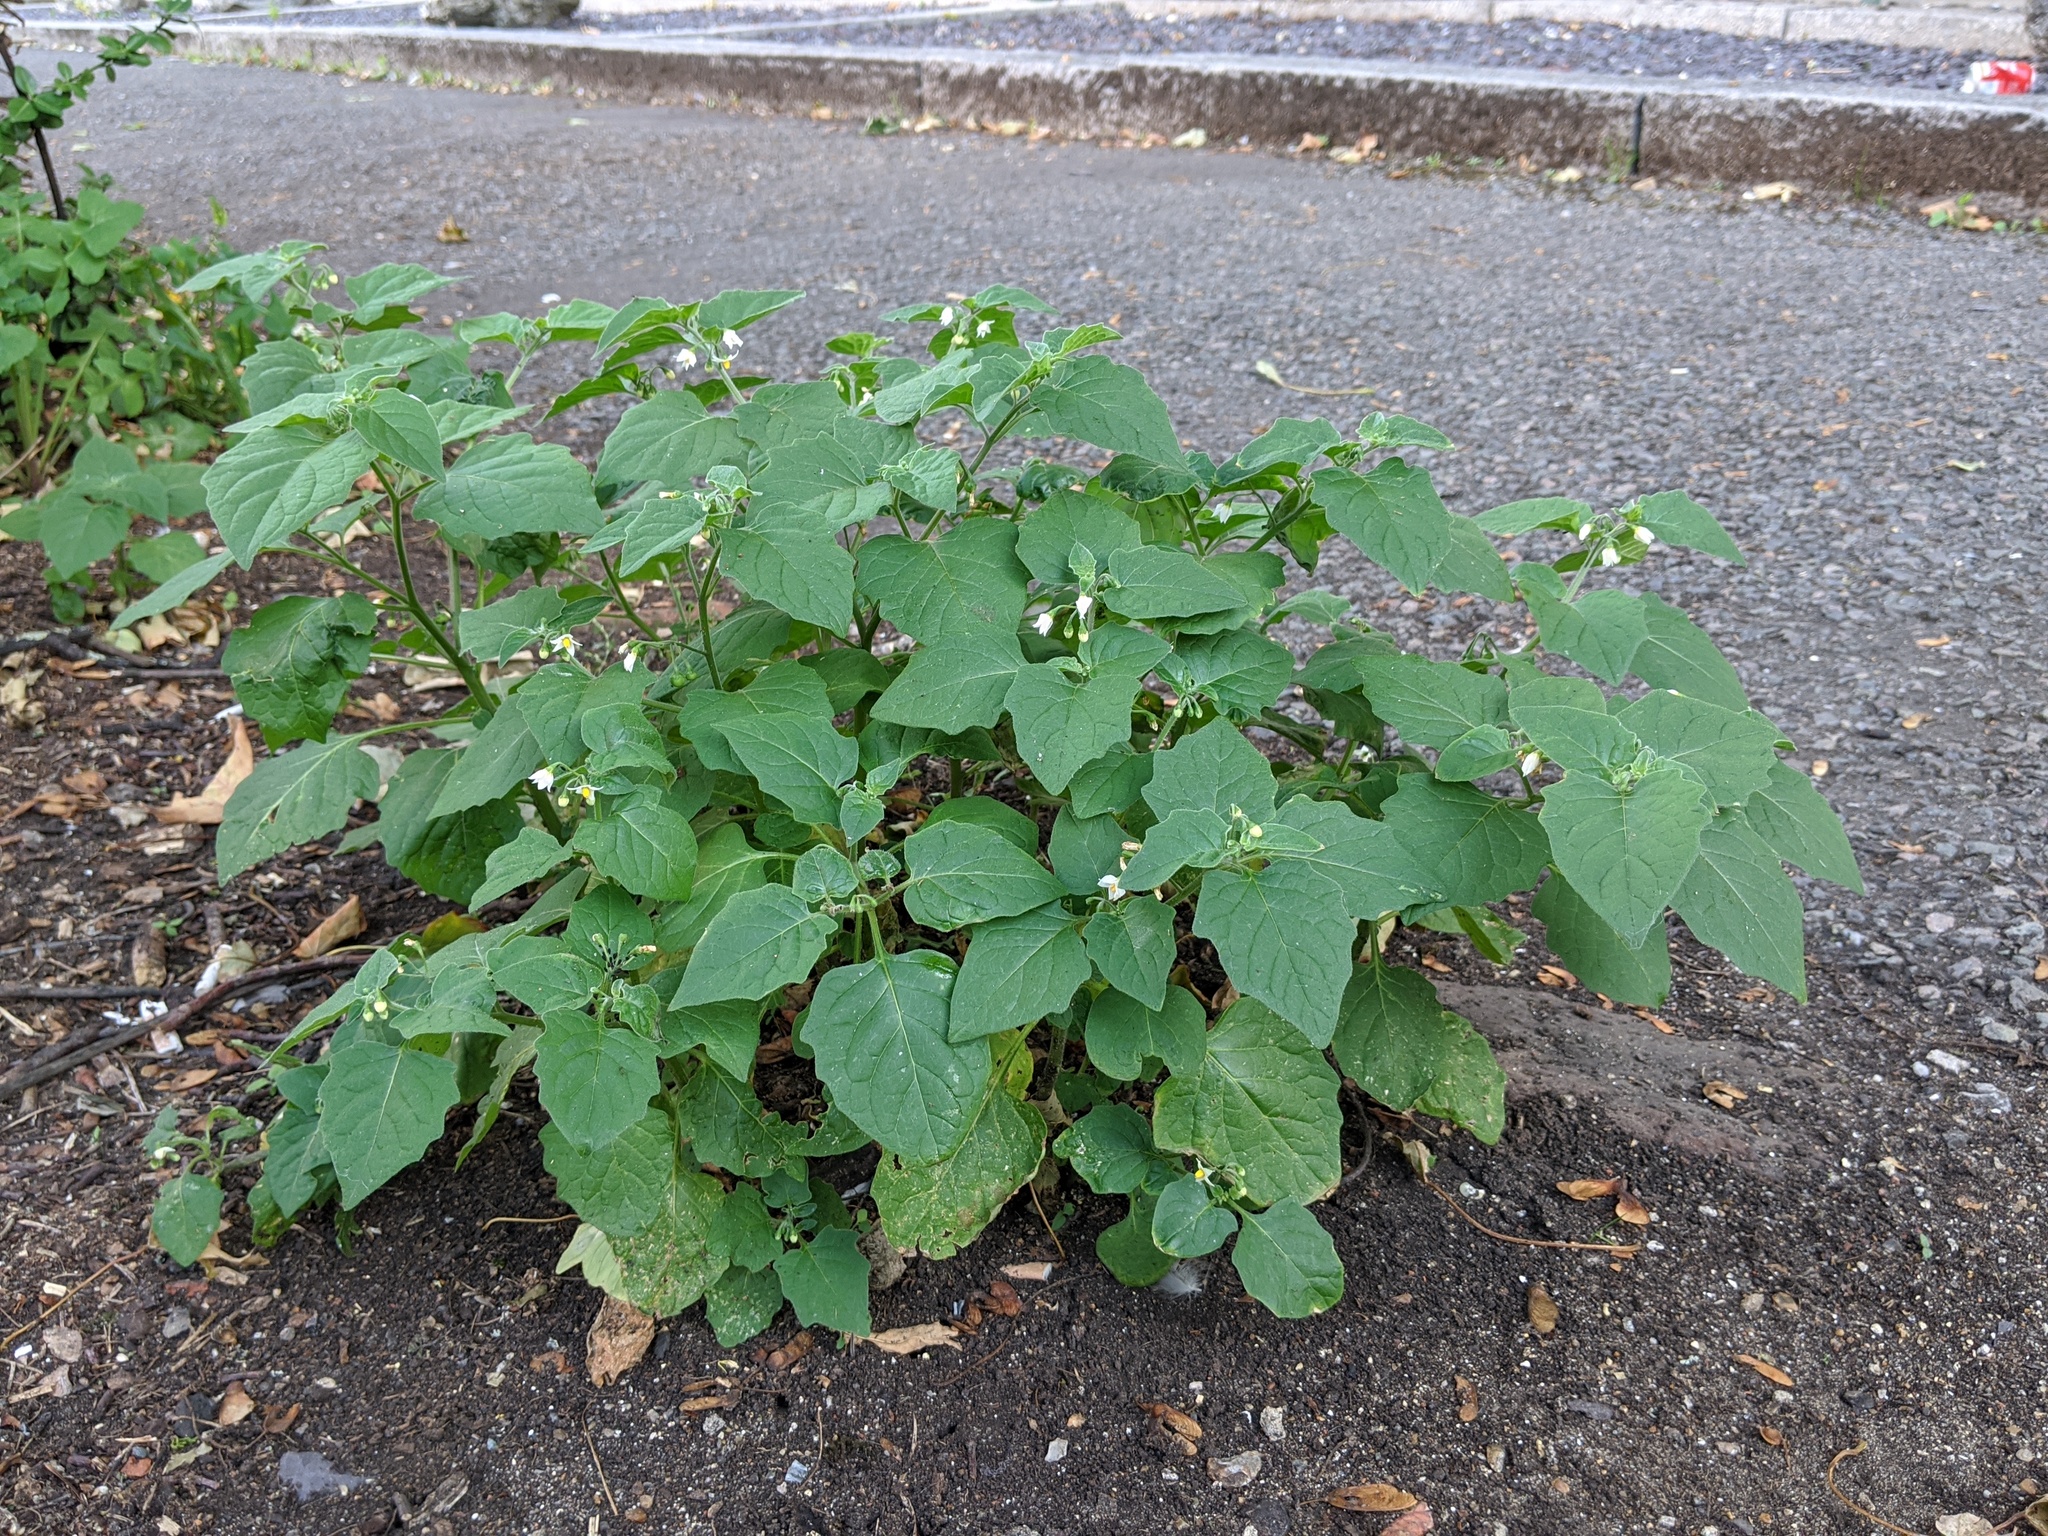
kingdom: Plantae
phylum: Tracheophyta
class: Magnoliopsida
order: Solanales
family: Solanaceae
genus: Solanum
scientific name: Solanum nigrum
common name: Black nightshade
